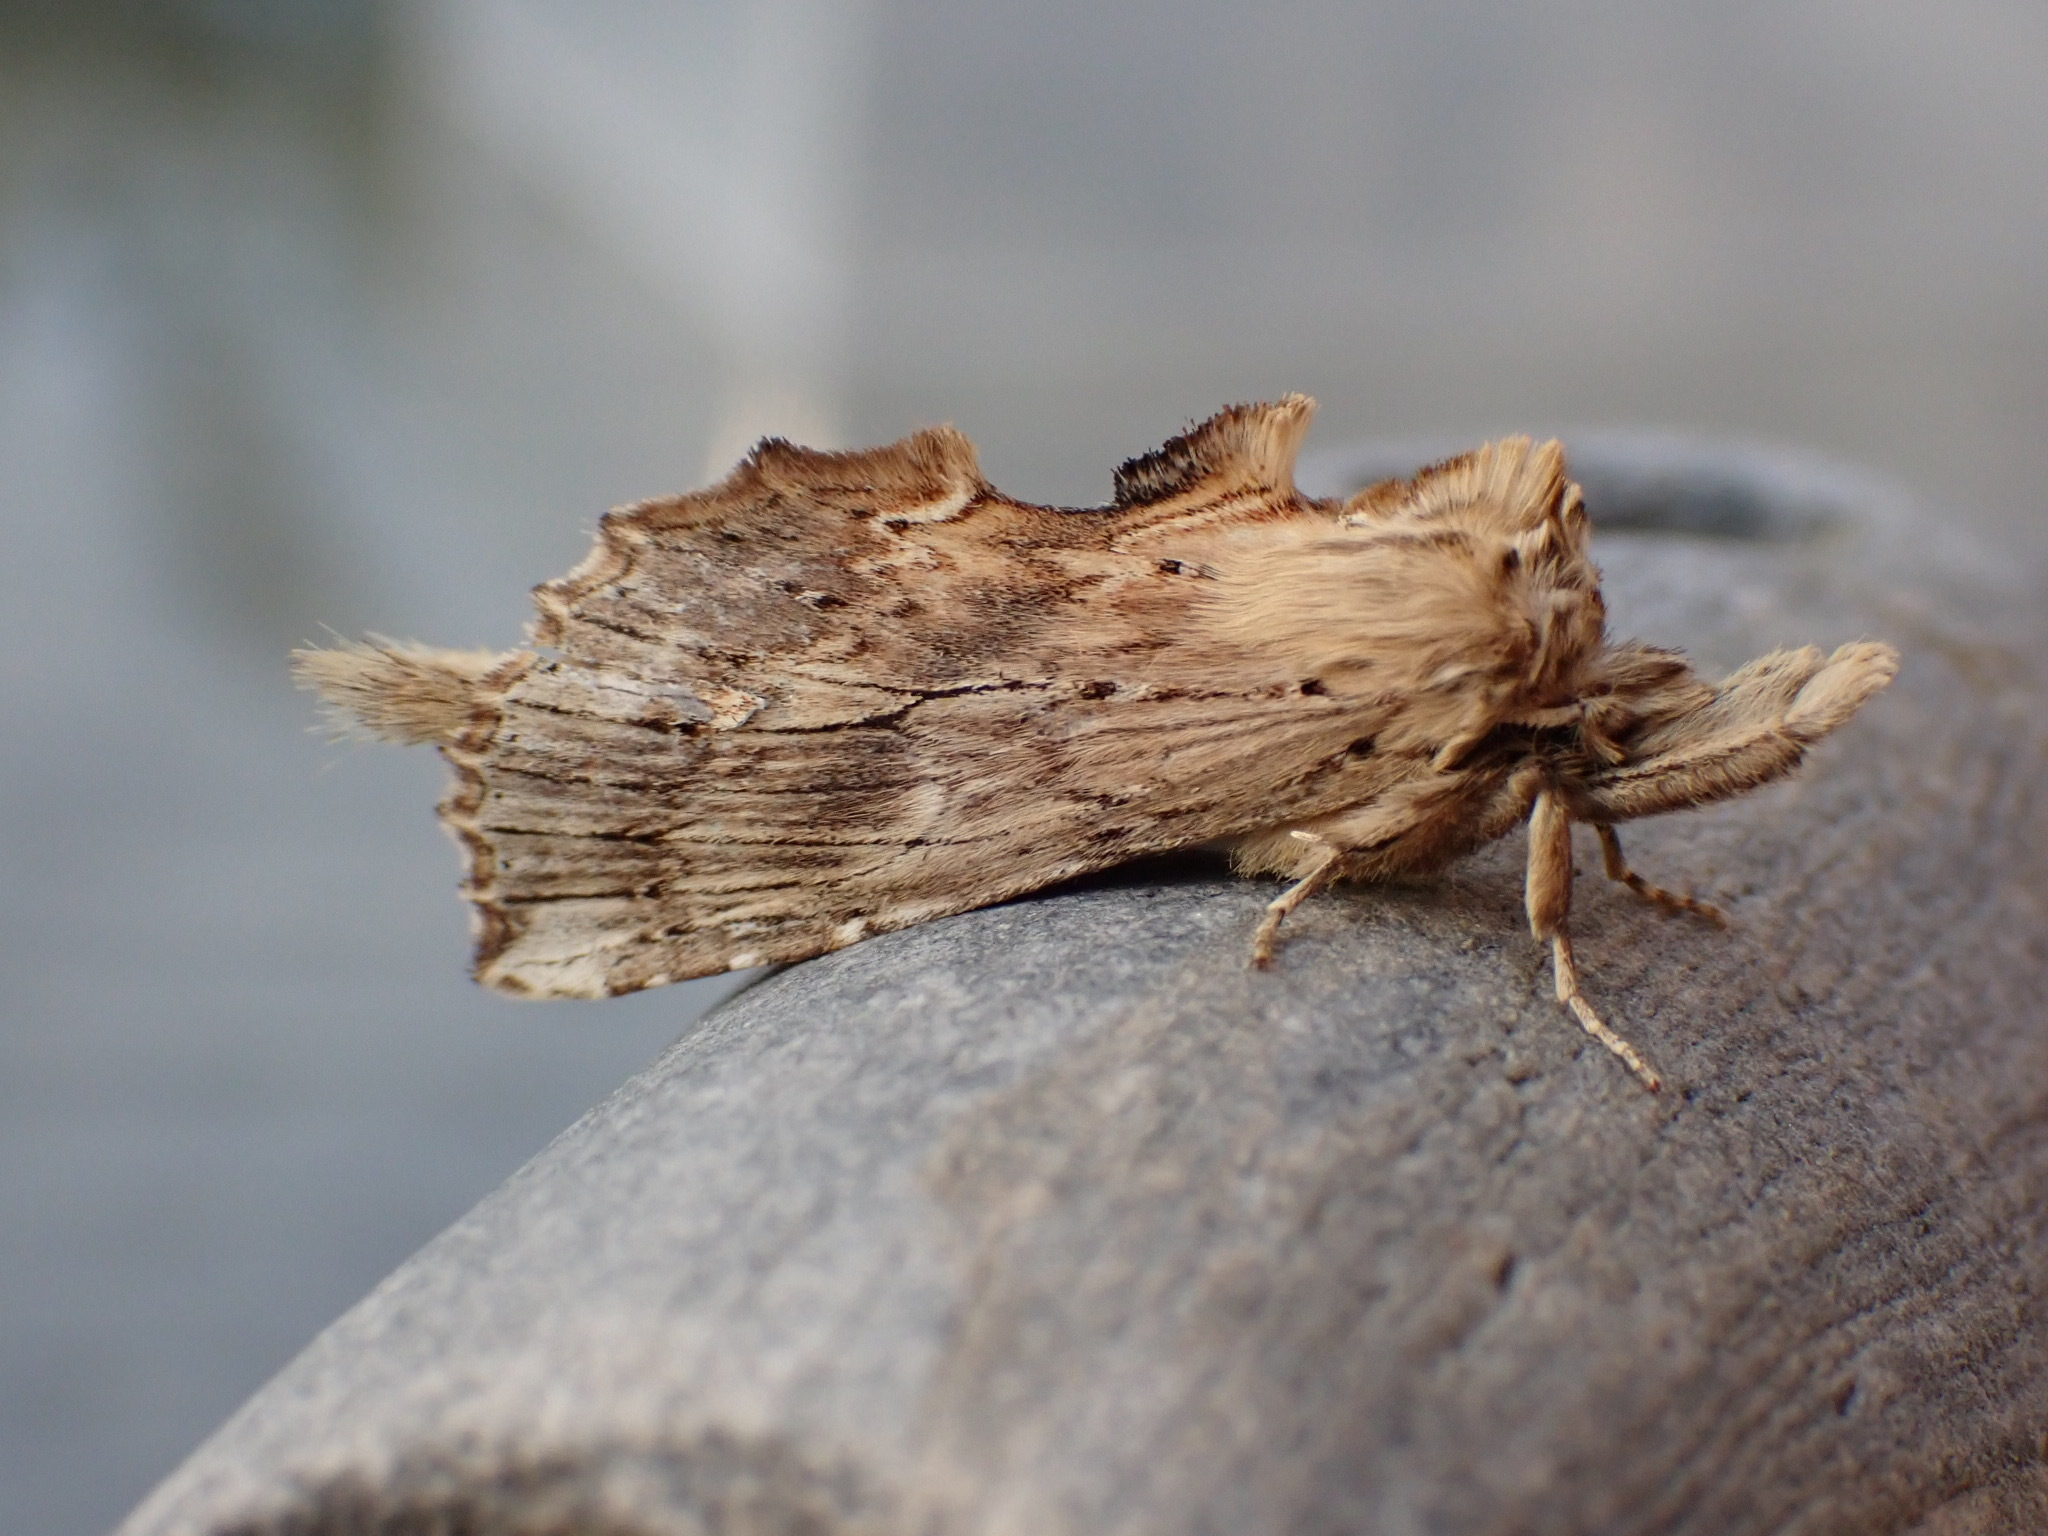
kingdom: Animalia
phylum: Arthropoda
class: Insecta
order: Lepidoptera
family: Notodontidae
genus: Pterostoma
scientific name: Pterostoma palpina
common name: Pale prominent
